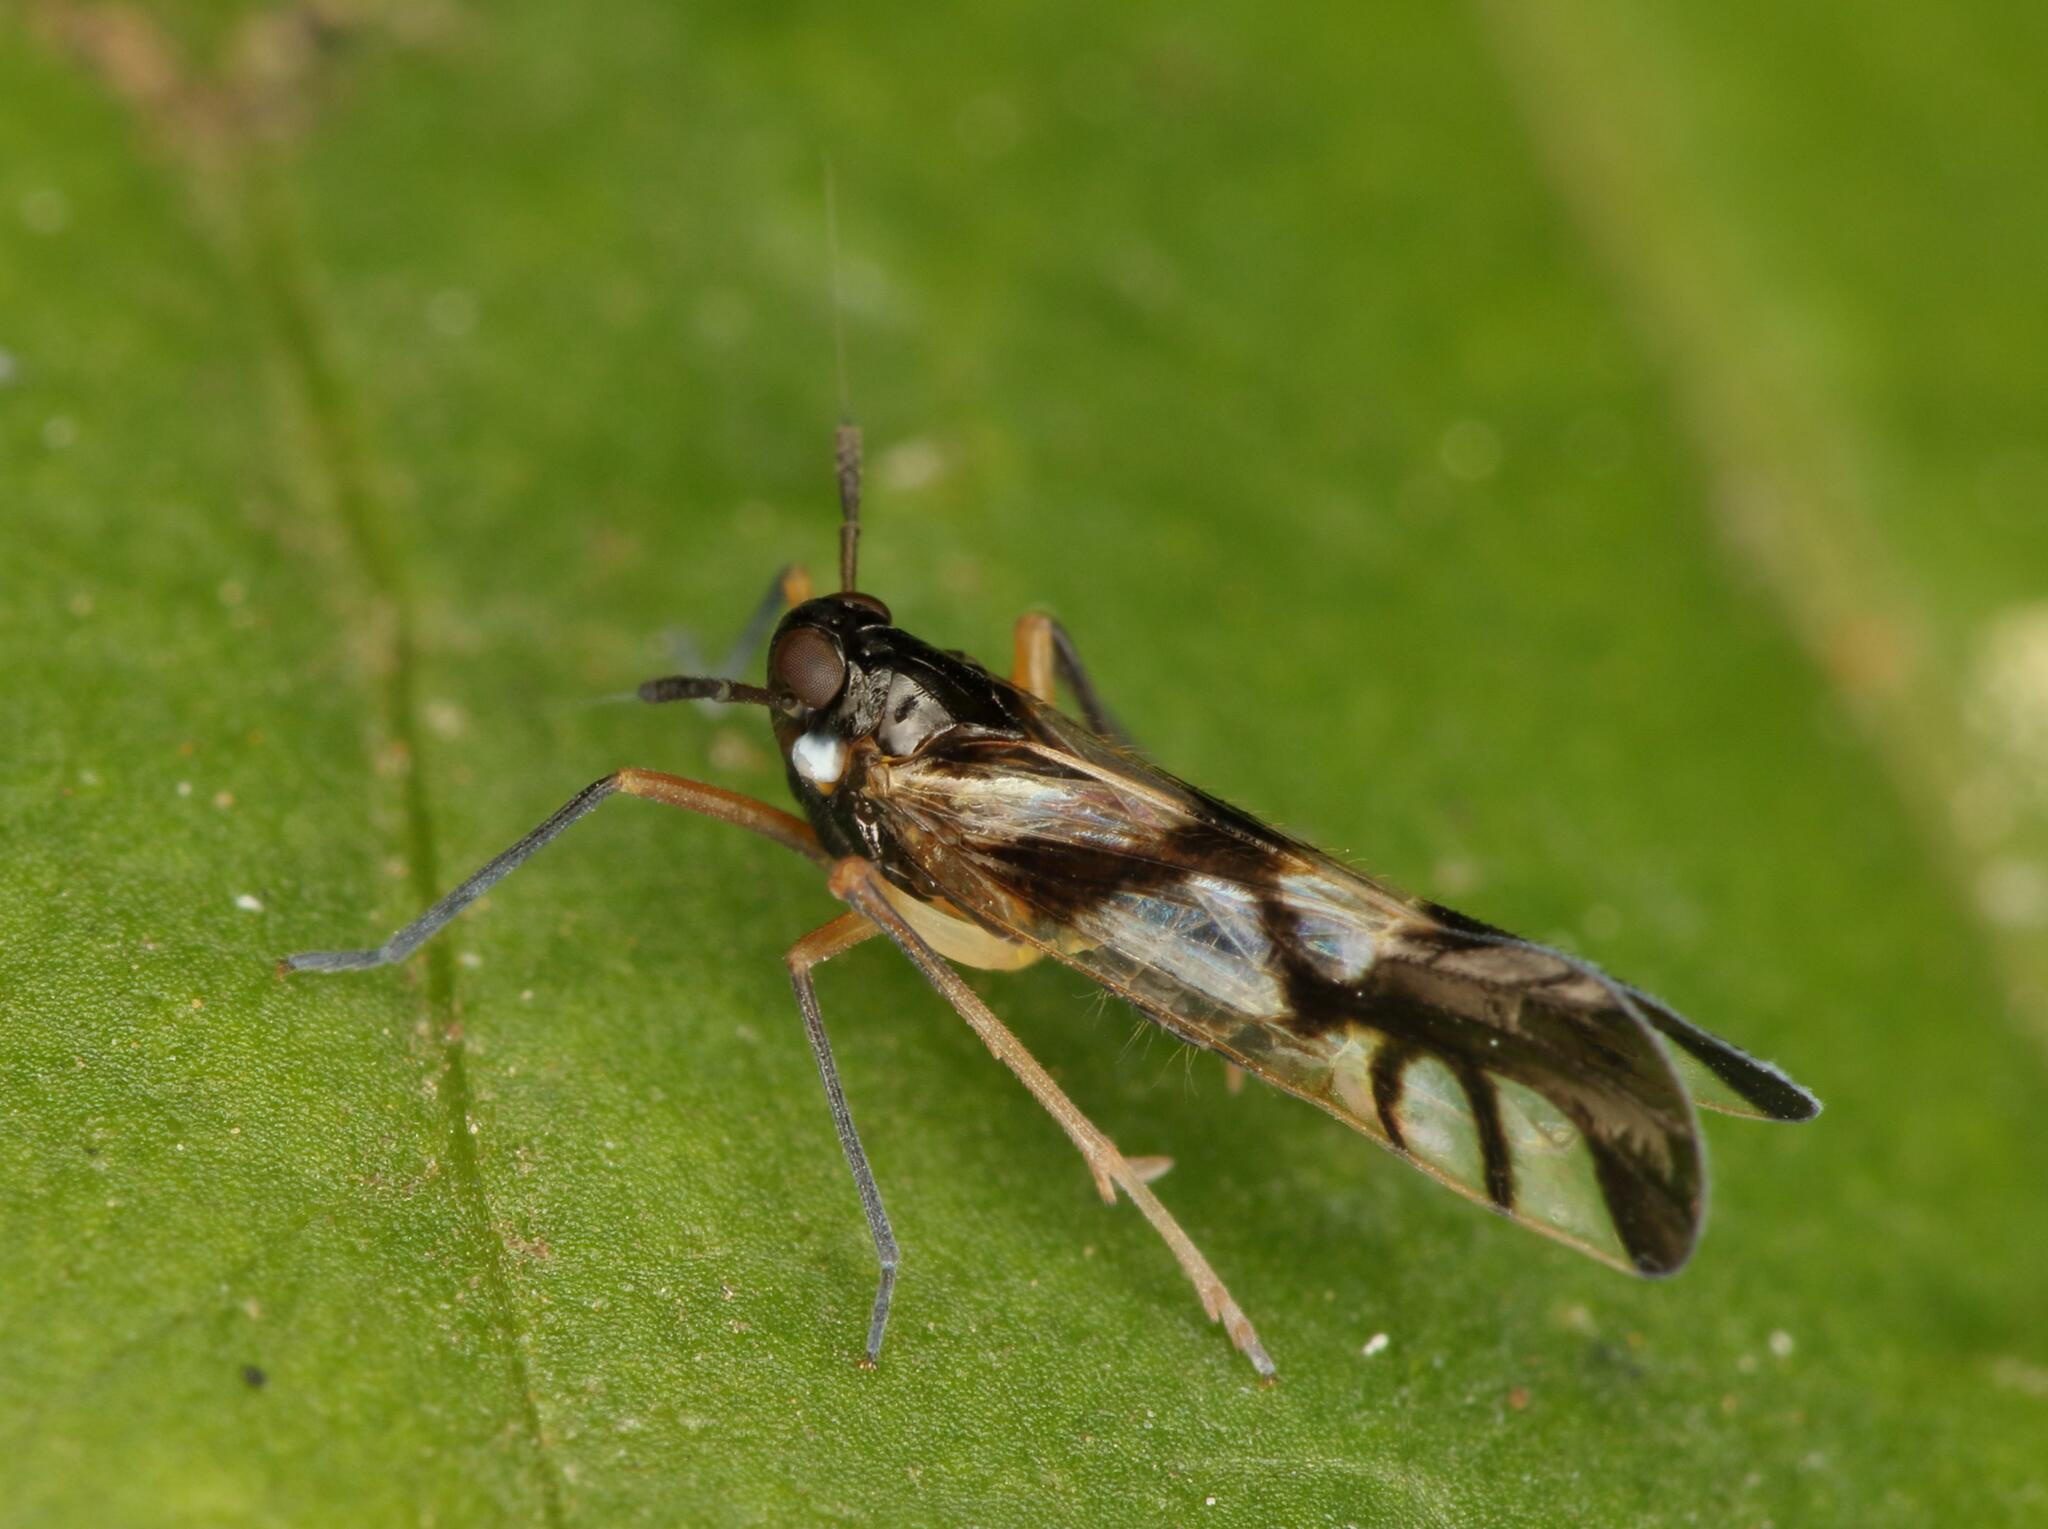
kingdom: Animalia
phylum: Arthropoda
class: Insecta
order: Hemiptera
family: Delphacidae
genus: Hapalomelus
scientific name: Hapalomelus flavipes
